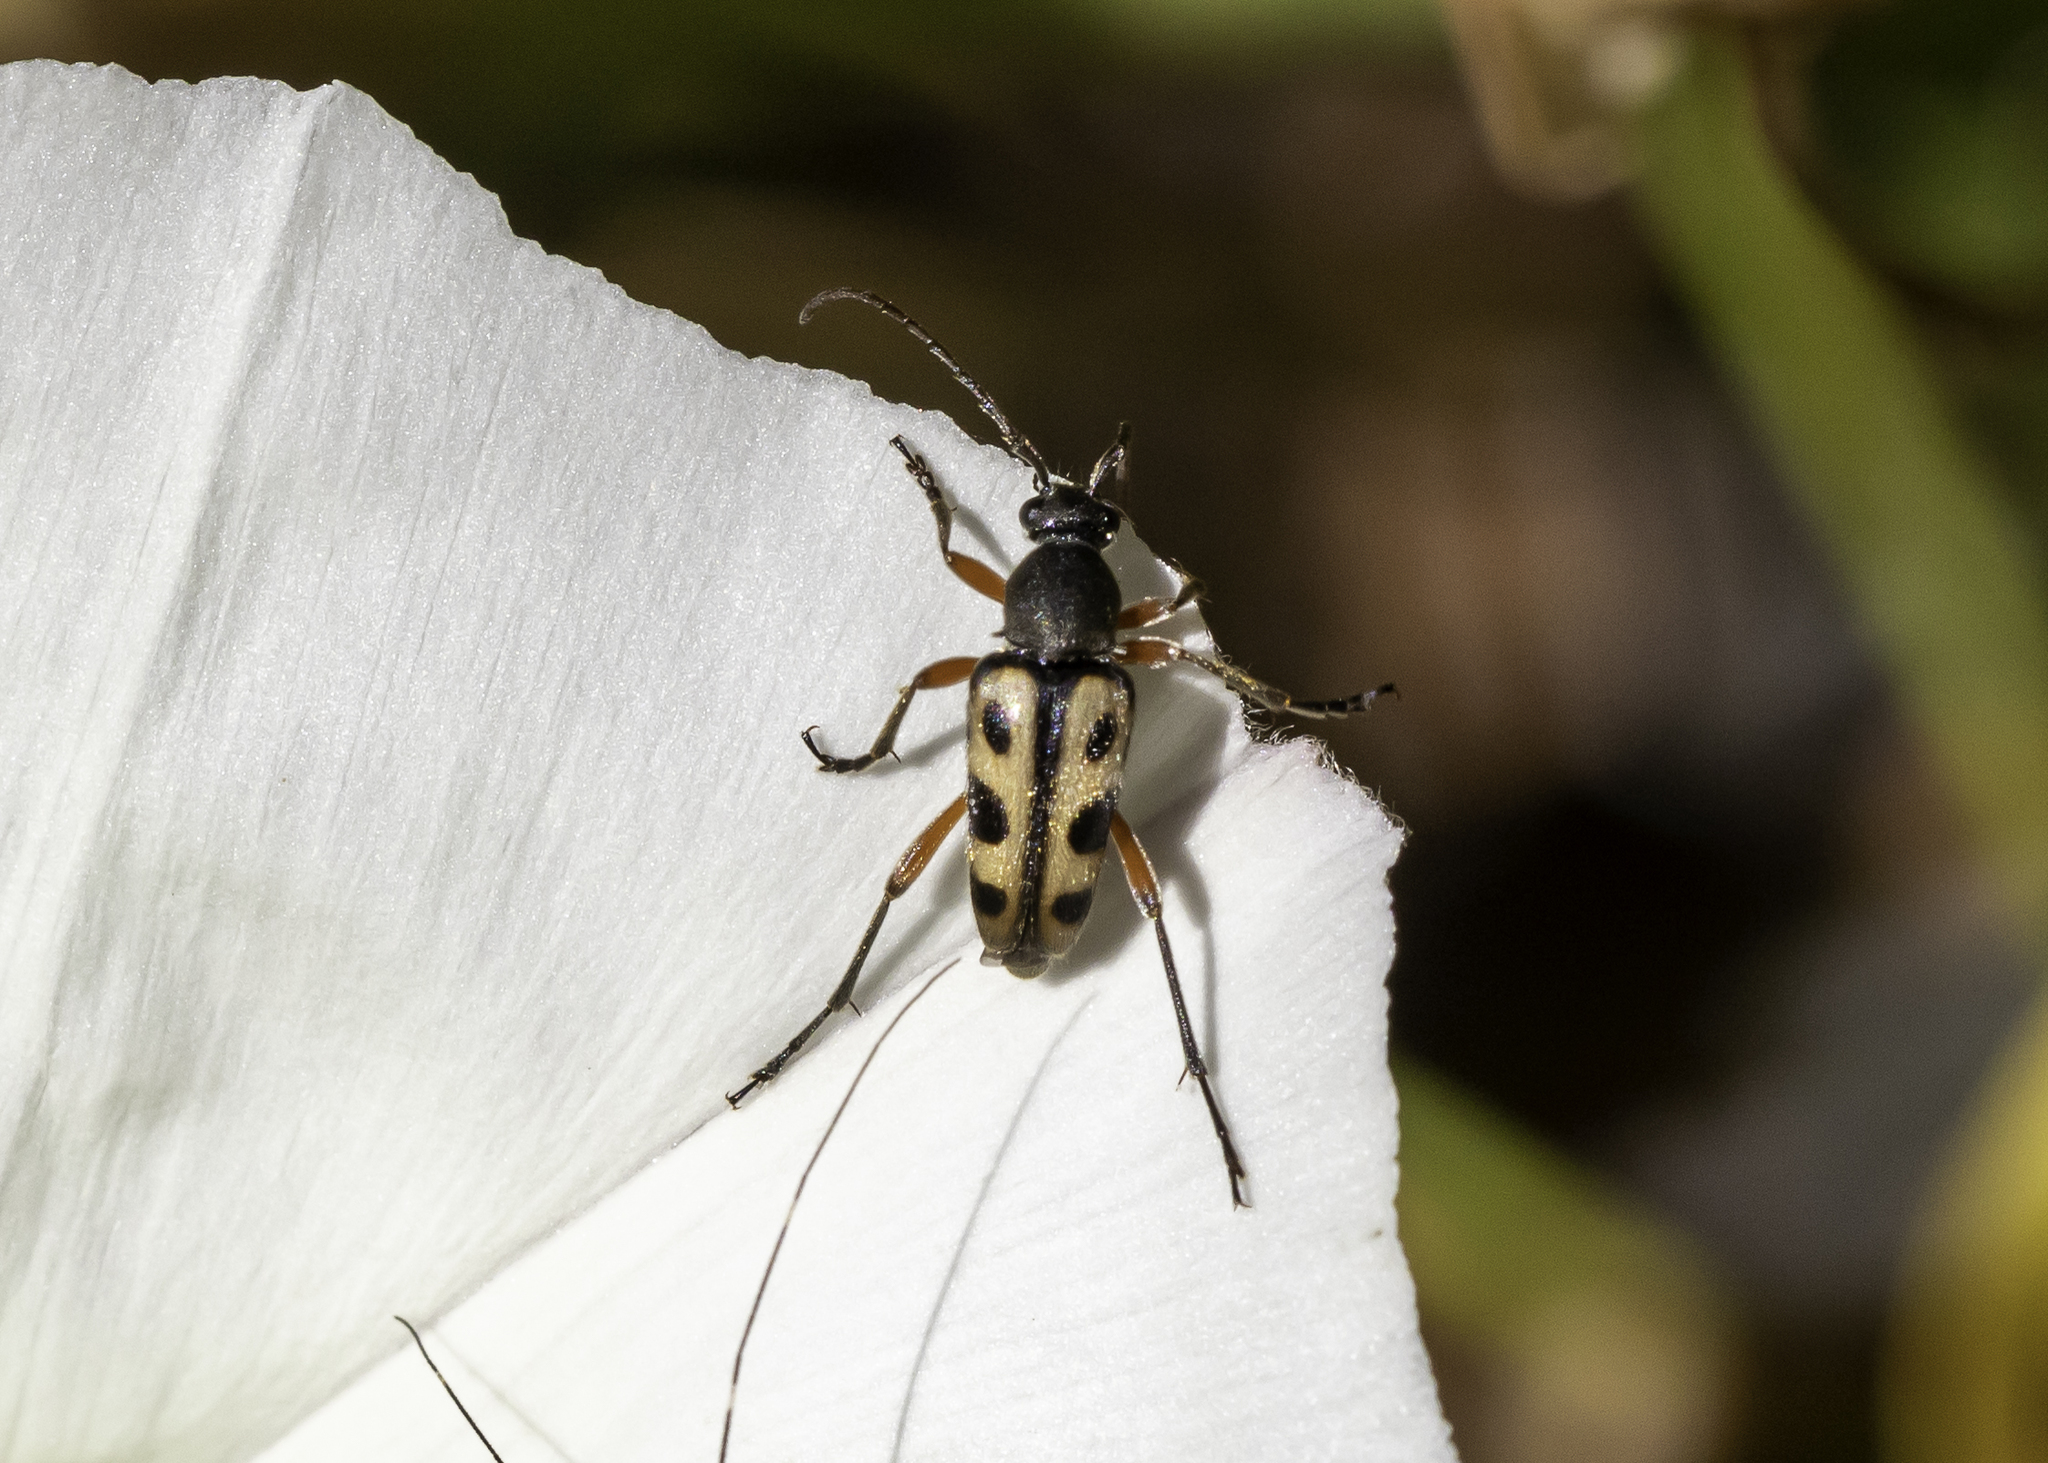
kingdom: Animalia
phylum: Arthropoda
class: Insecta
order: Coleoptera
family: Cerambycidae
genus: Judolia
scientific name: Judolia sexspilota
